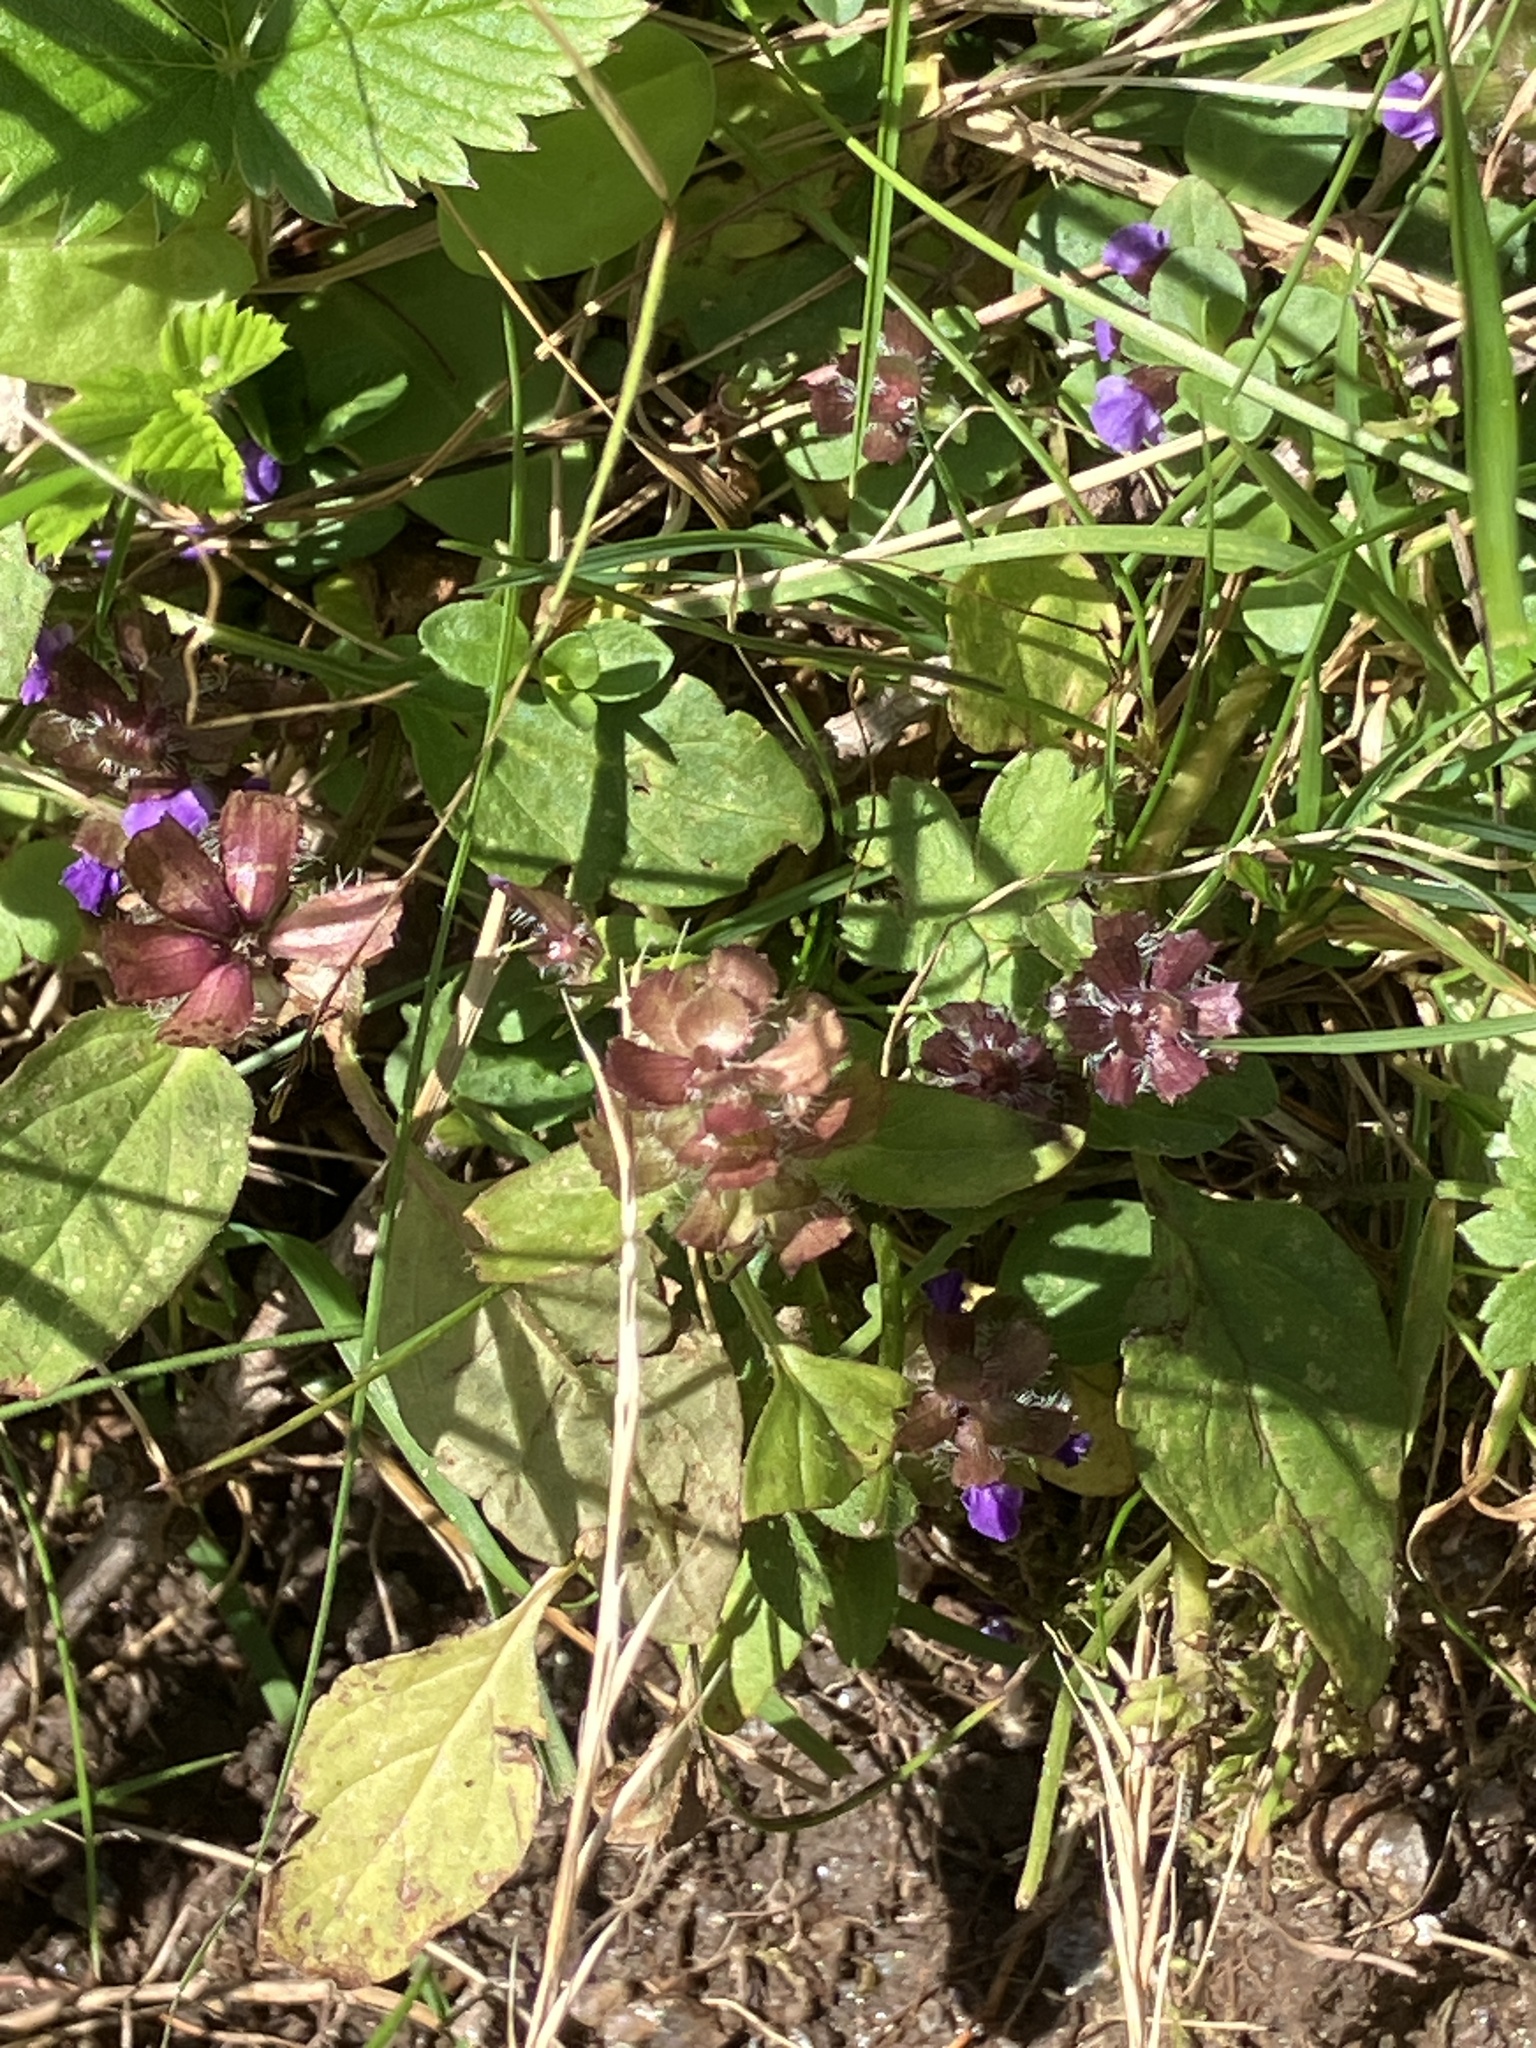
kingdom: Plantae
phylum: Tracheophyta
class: Magnoliopsida
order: Lamiales
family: Lamiaceae
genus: Prunella
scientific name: Prunella vulgaris
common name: Heal-all
